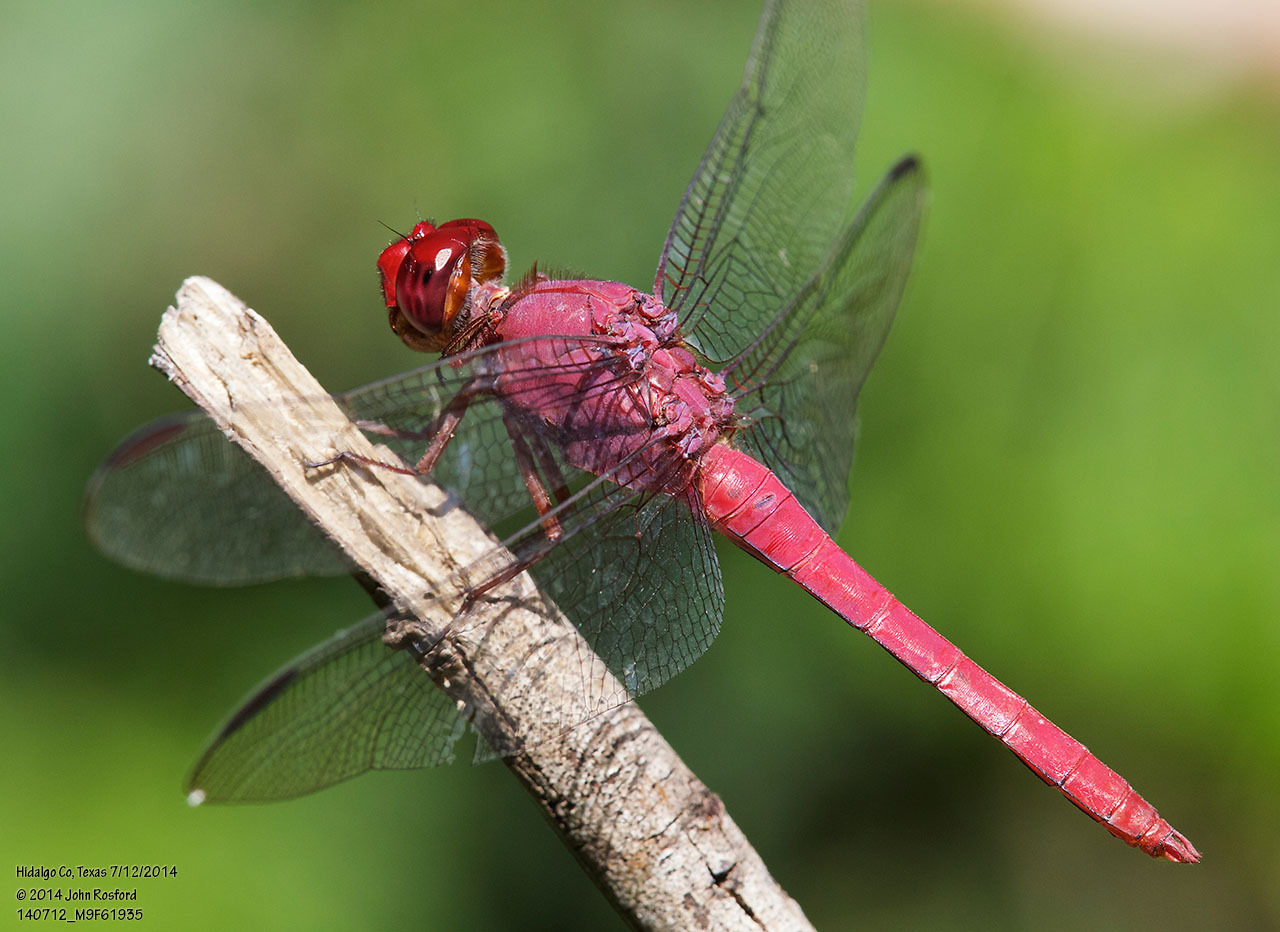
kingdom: Animalia
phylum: Arthropoda
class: Insecta
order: Odonata
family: Libellulidae
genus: Orthemis
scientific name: Orthemis discolor
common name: Carmine skimmer
